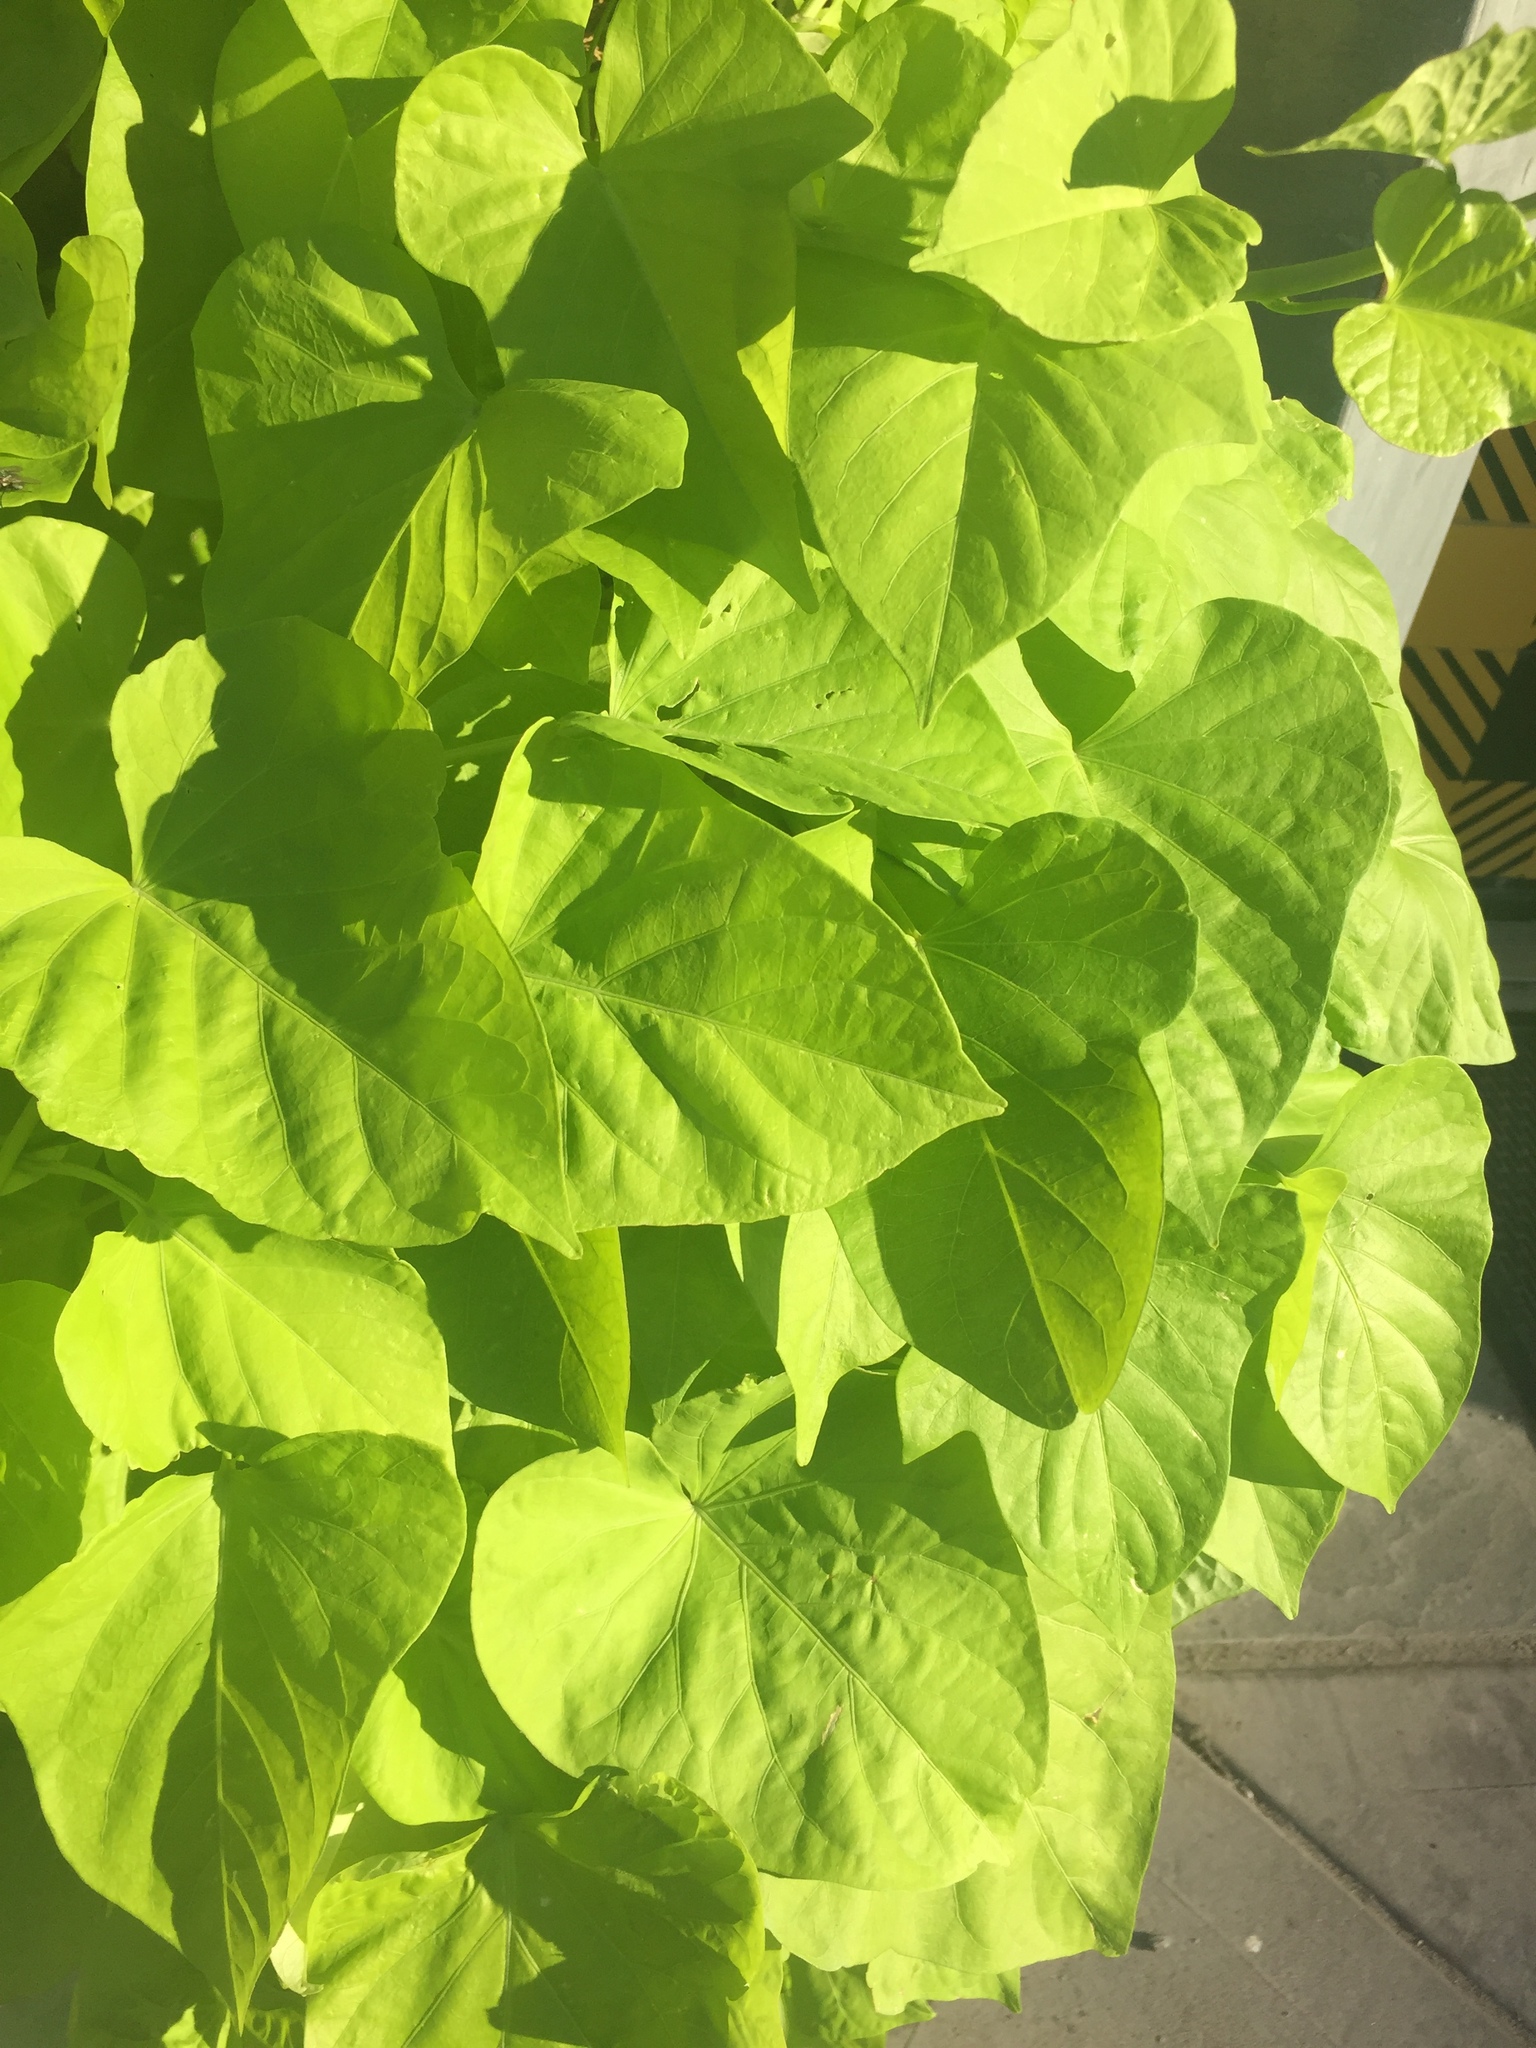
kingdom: Plantae
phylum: Tracheophyta
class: Magnoliopsida
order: Solanales
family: Convolvulaceae
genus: Ipomoea
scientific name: Ipomoea batatas
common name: Sweet-potato
